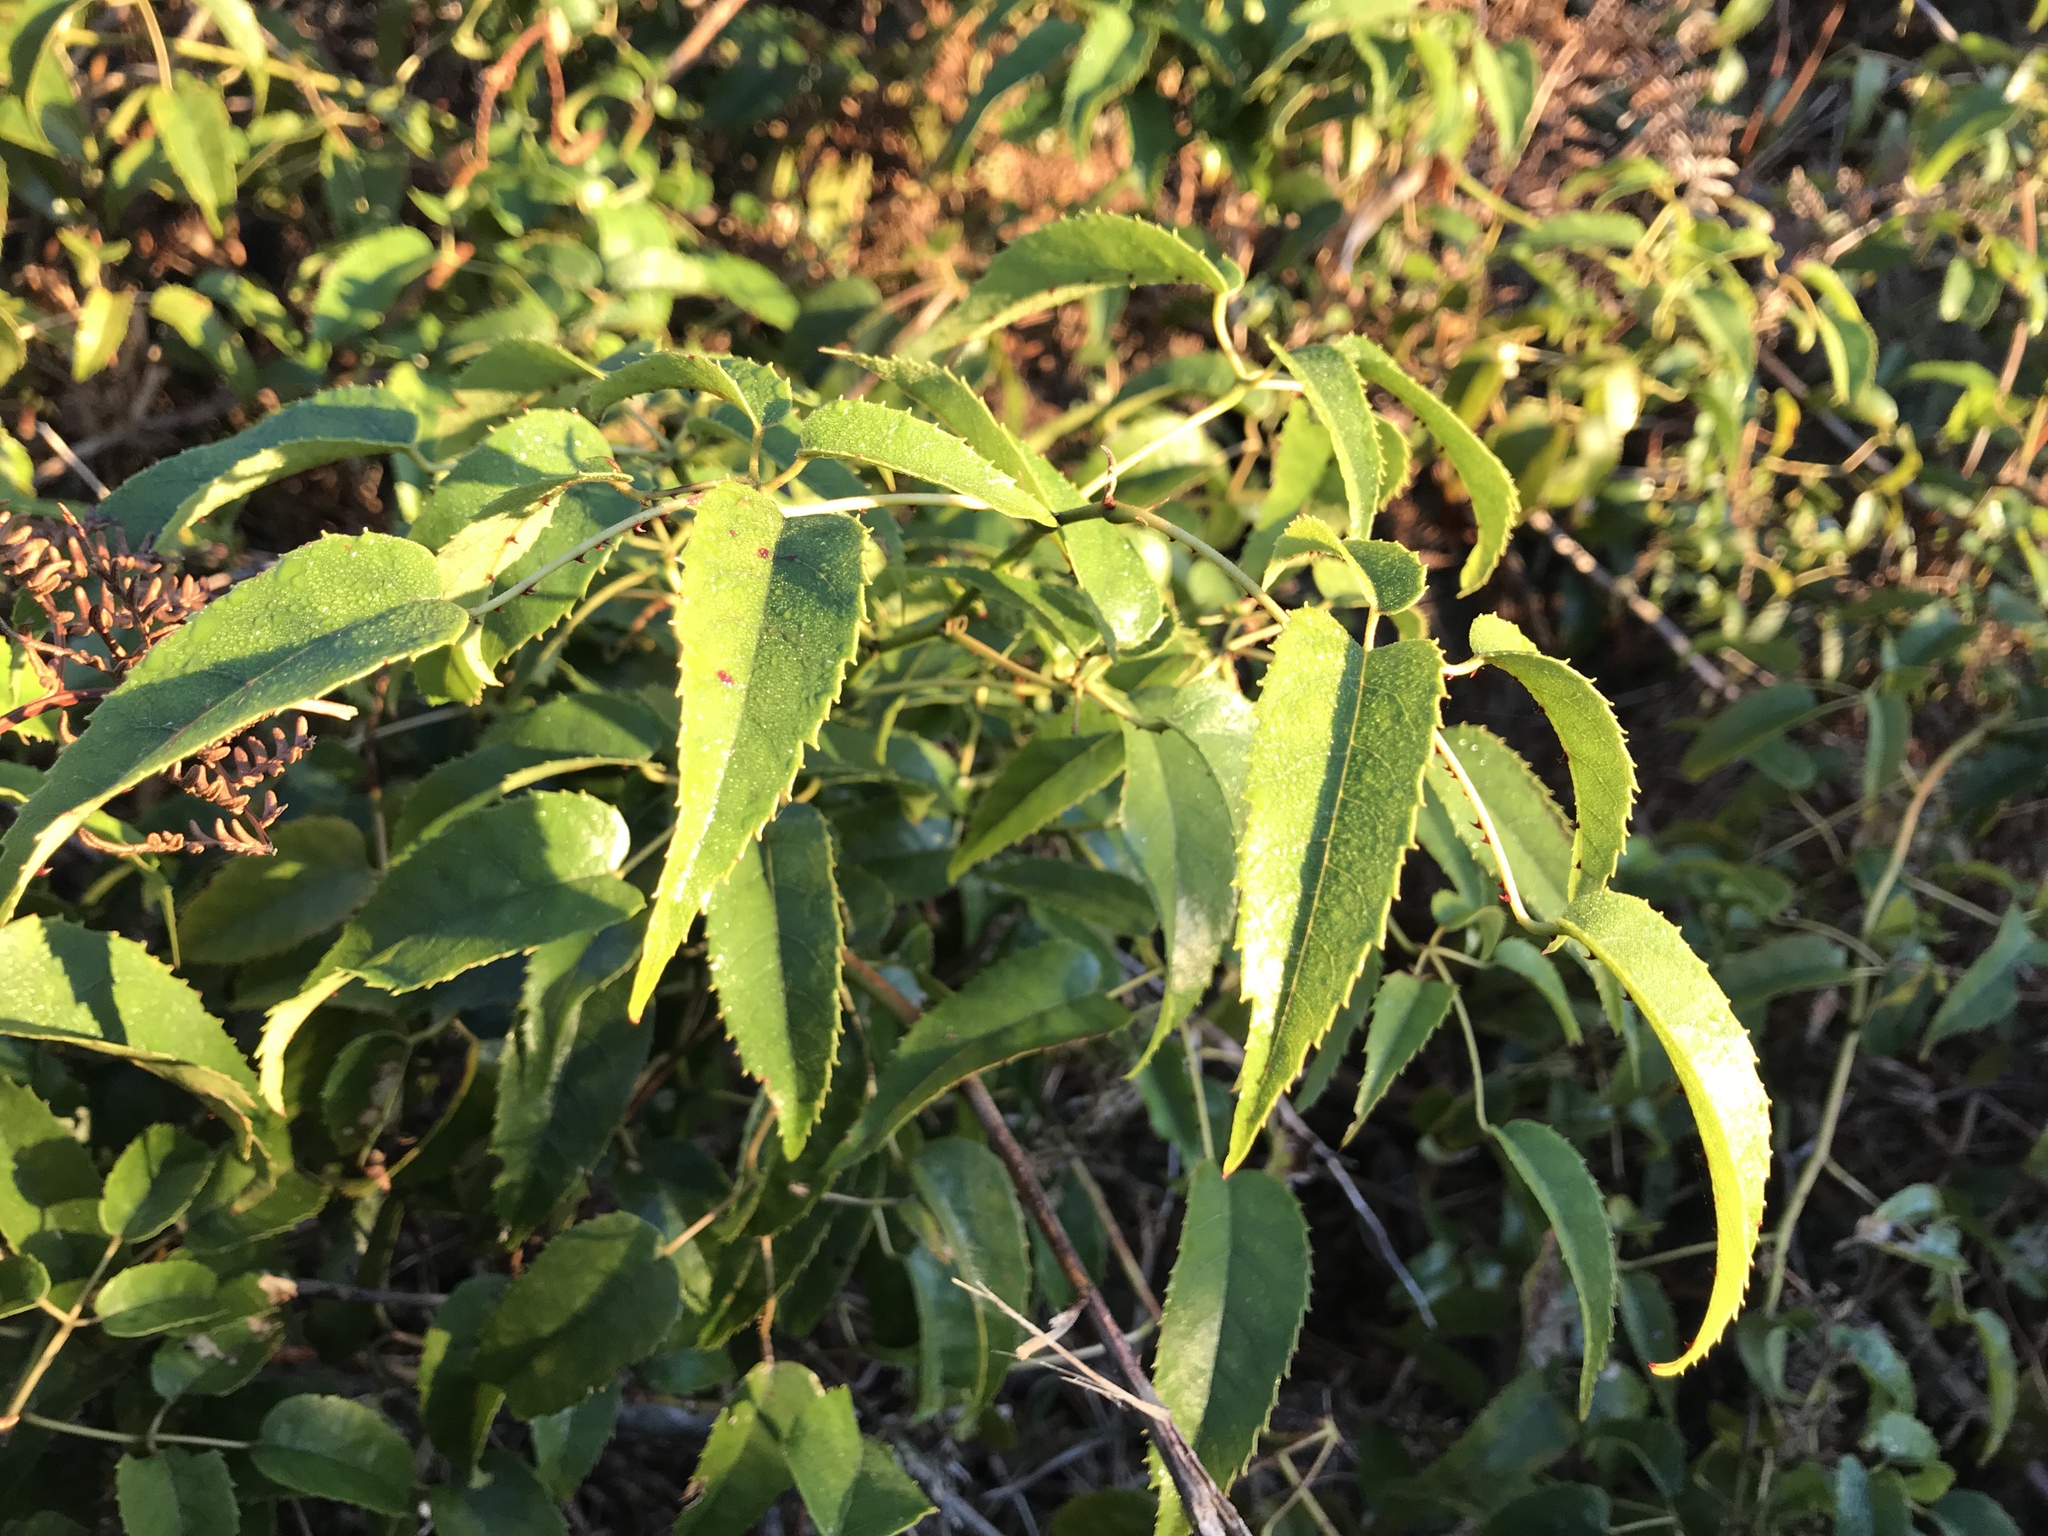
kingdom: Plantae
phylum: Tracheophyta
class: Magnoliopsida
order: Rosales
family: Rosaceae
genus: Rubus
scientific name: Rubus cissoides
